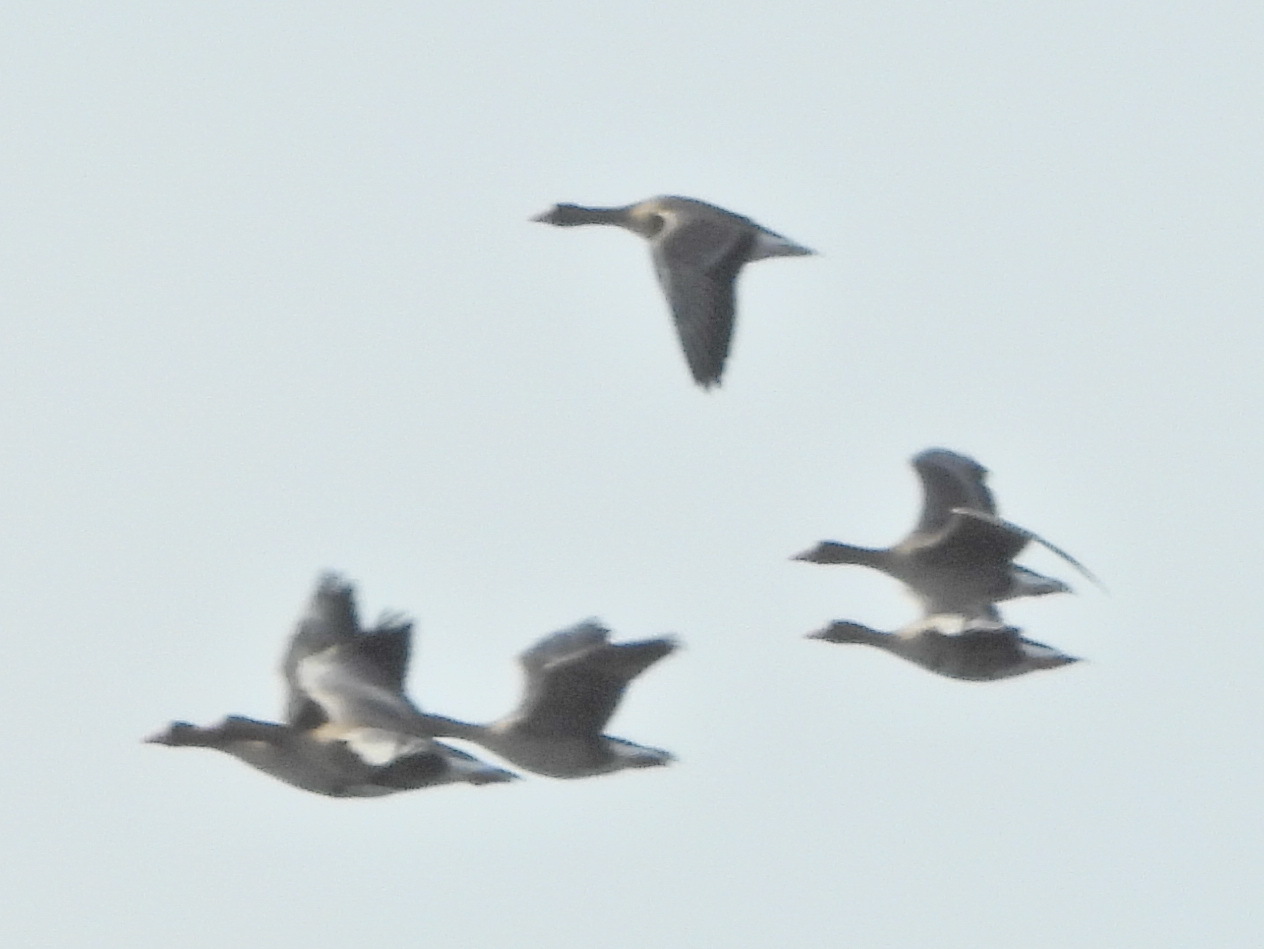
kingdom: Animalia
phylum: Chordata
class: Aves
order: Anseriformes
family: Anatidae
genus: Anser
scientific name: Anser albifrons
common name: Greater white-fronted goose
